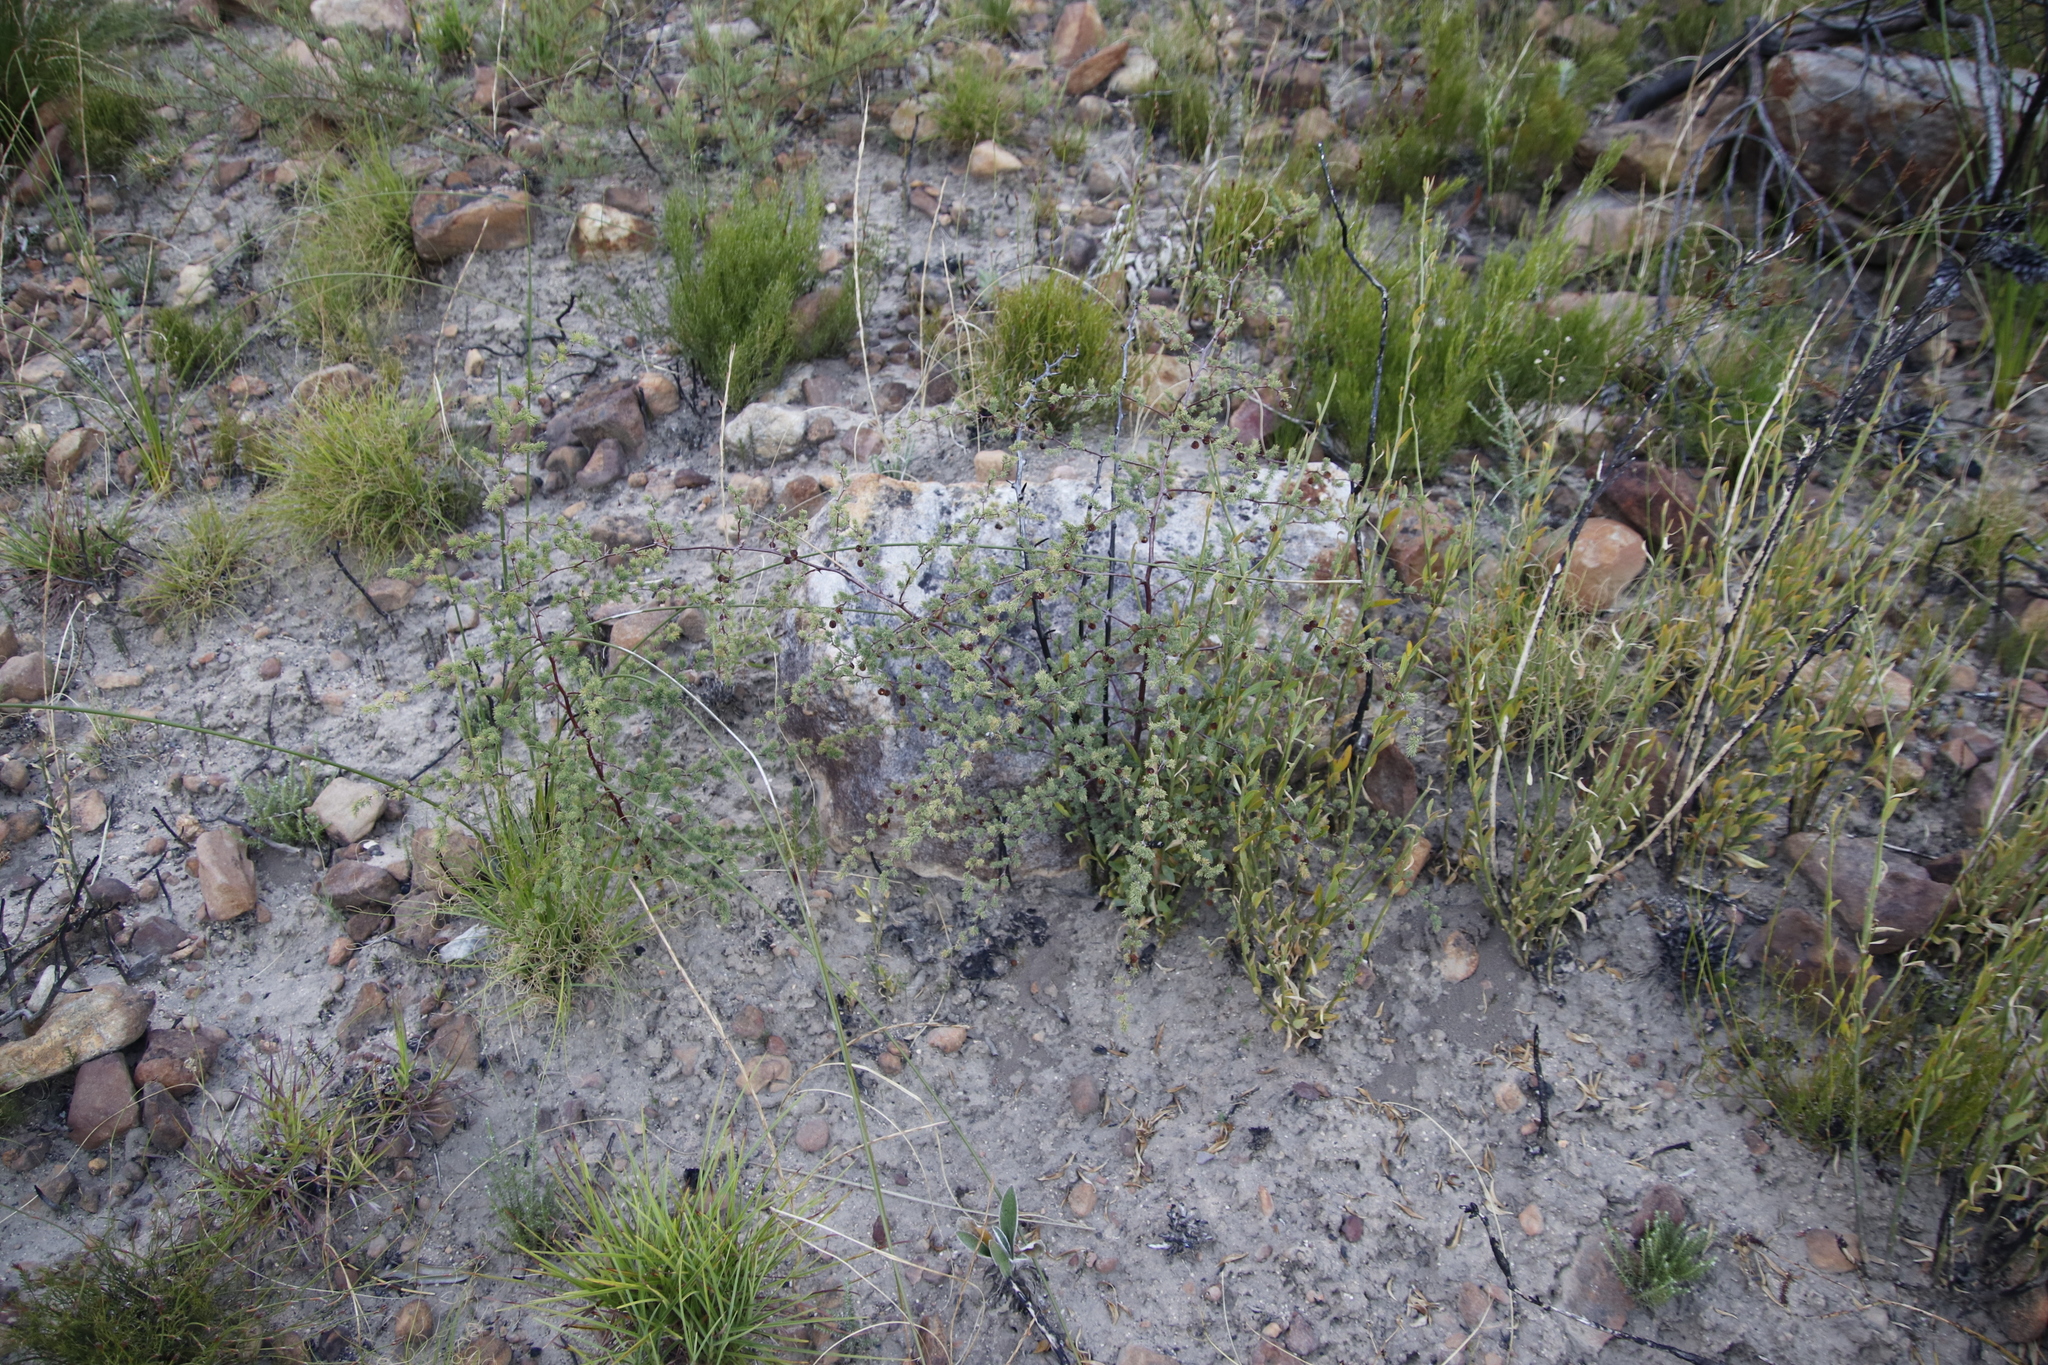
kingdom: Plantae
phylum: Tracheophyta
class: Liliopsida
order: Asparagales
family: Asparagaceae
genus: Asparagus
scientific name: Asparagus rubicundus
